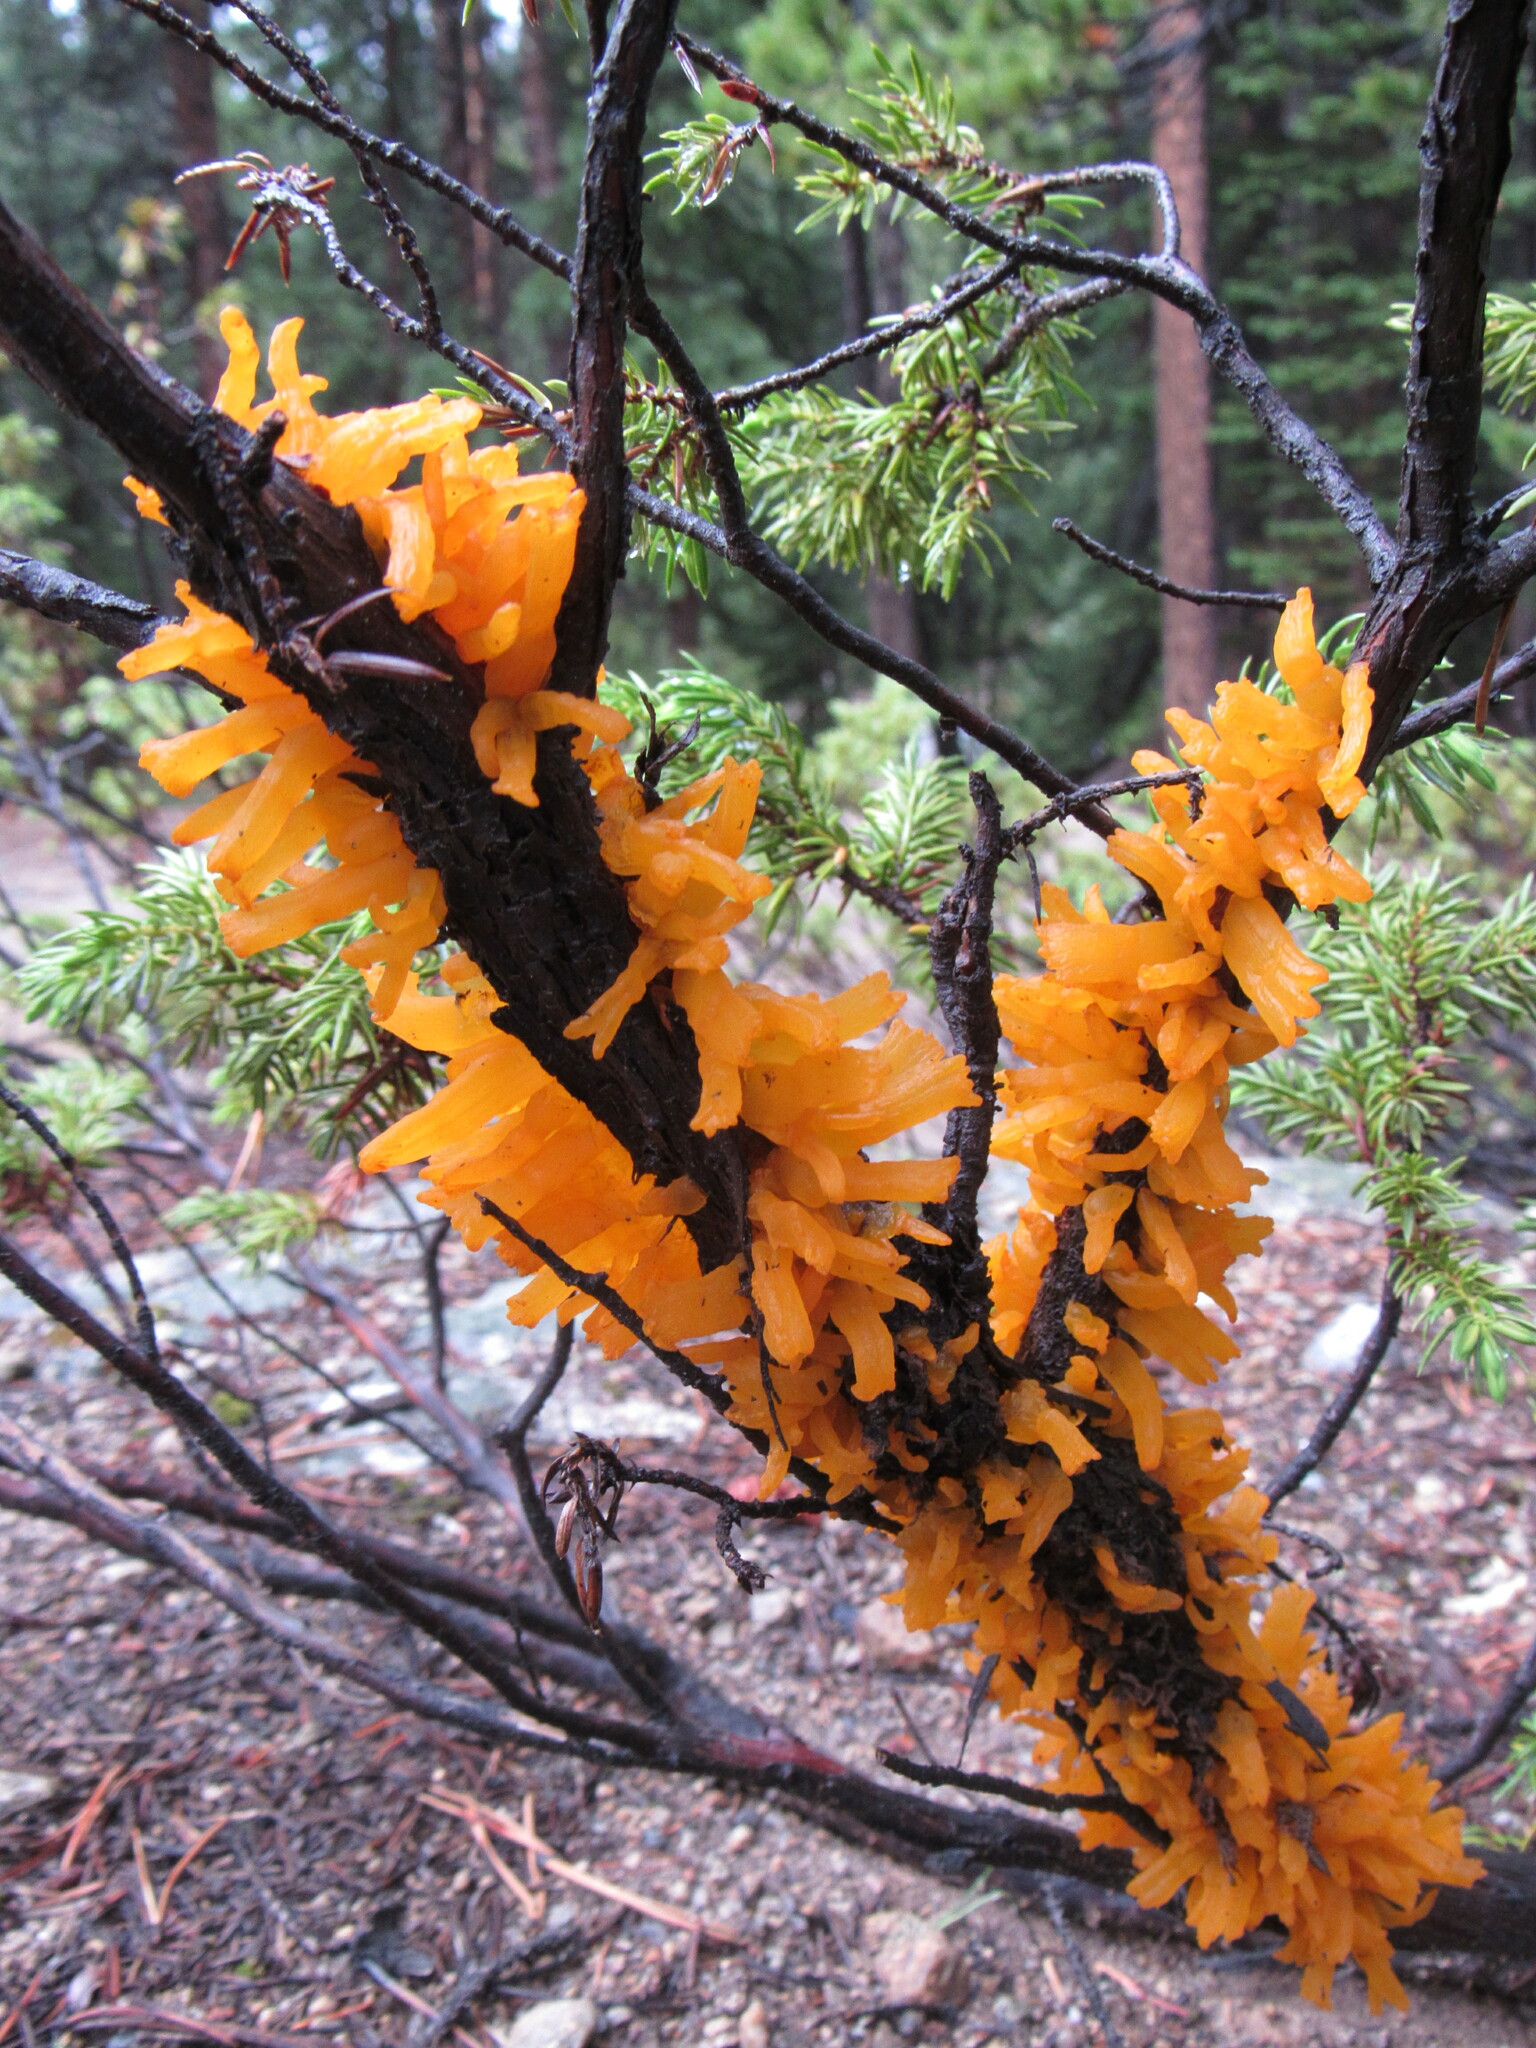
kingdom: Fungi
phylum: Basidiomycota
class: Pucciniomycetes
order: Pucciniales
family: Gymnosporangiaceae
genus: Gymnosporangium
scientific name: Gymnosporangium clavariiforme
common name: Tongues of fire
